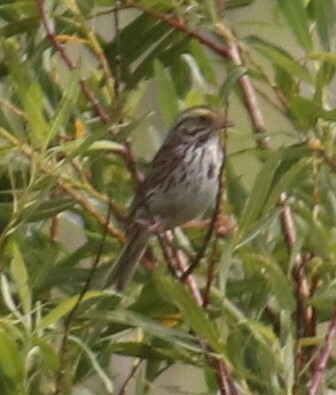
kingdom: Animalia
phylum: Chordata
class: Aves
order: Passeriformes
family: Passerellidae
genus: Passerculus
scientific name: Passerculus sandwichensis
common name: Savannah sparrow
